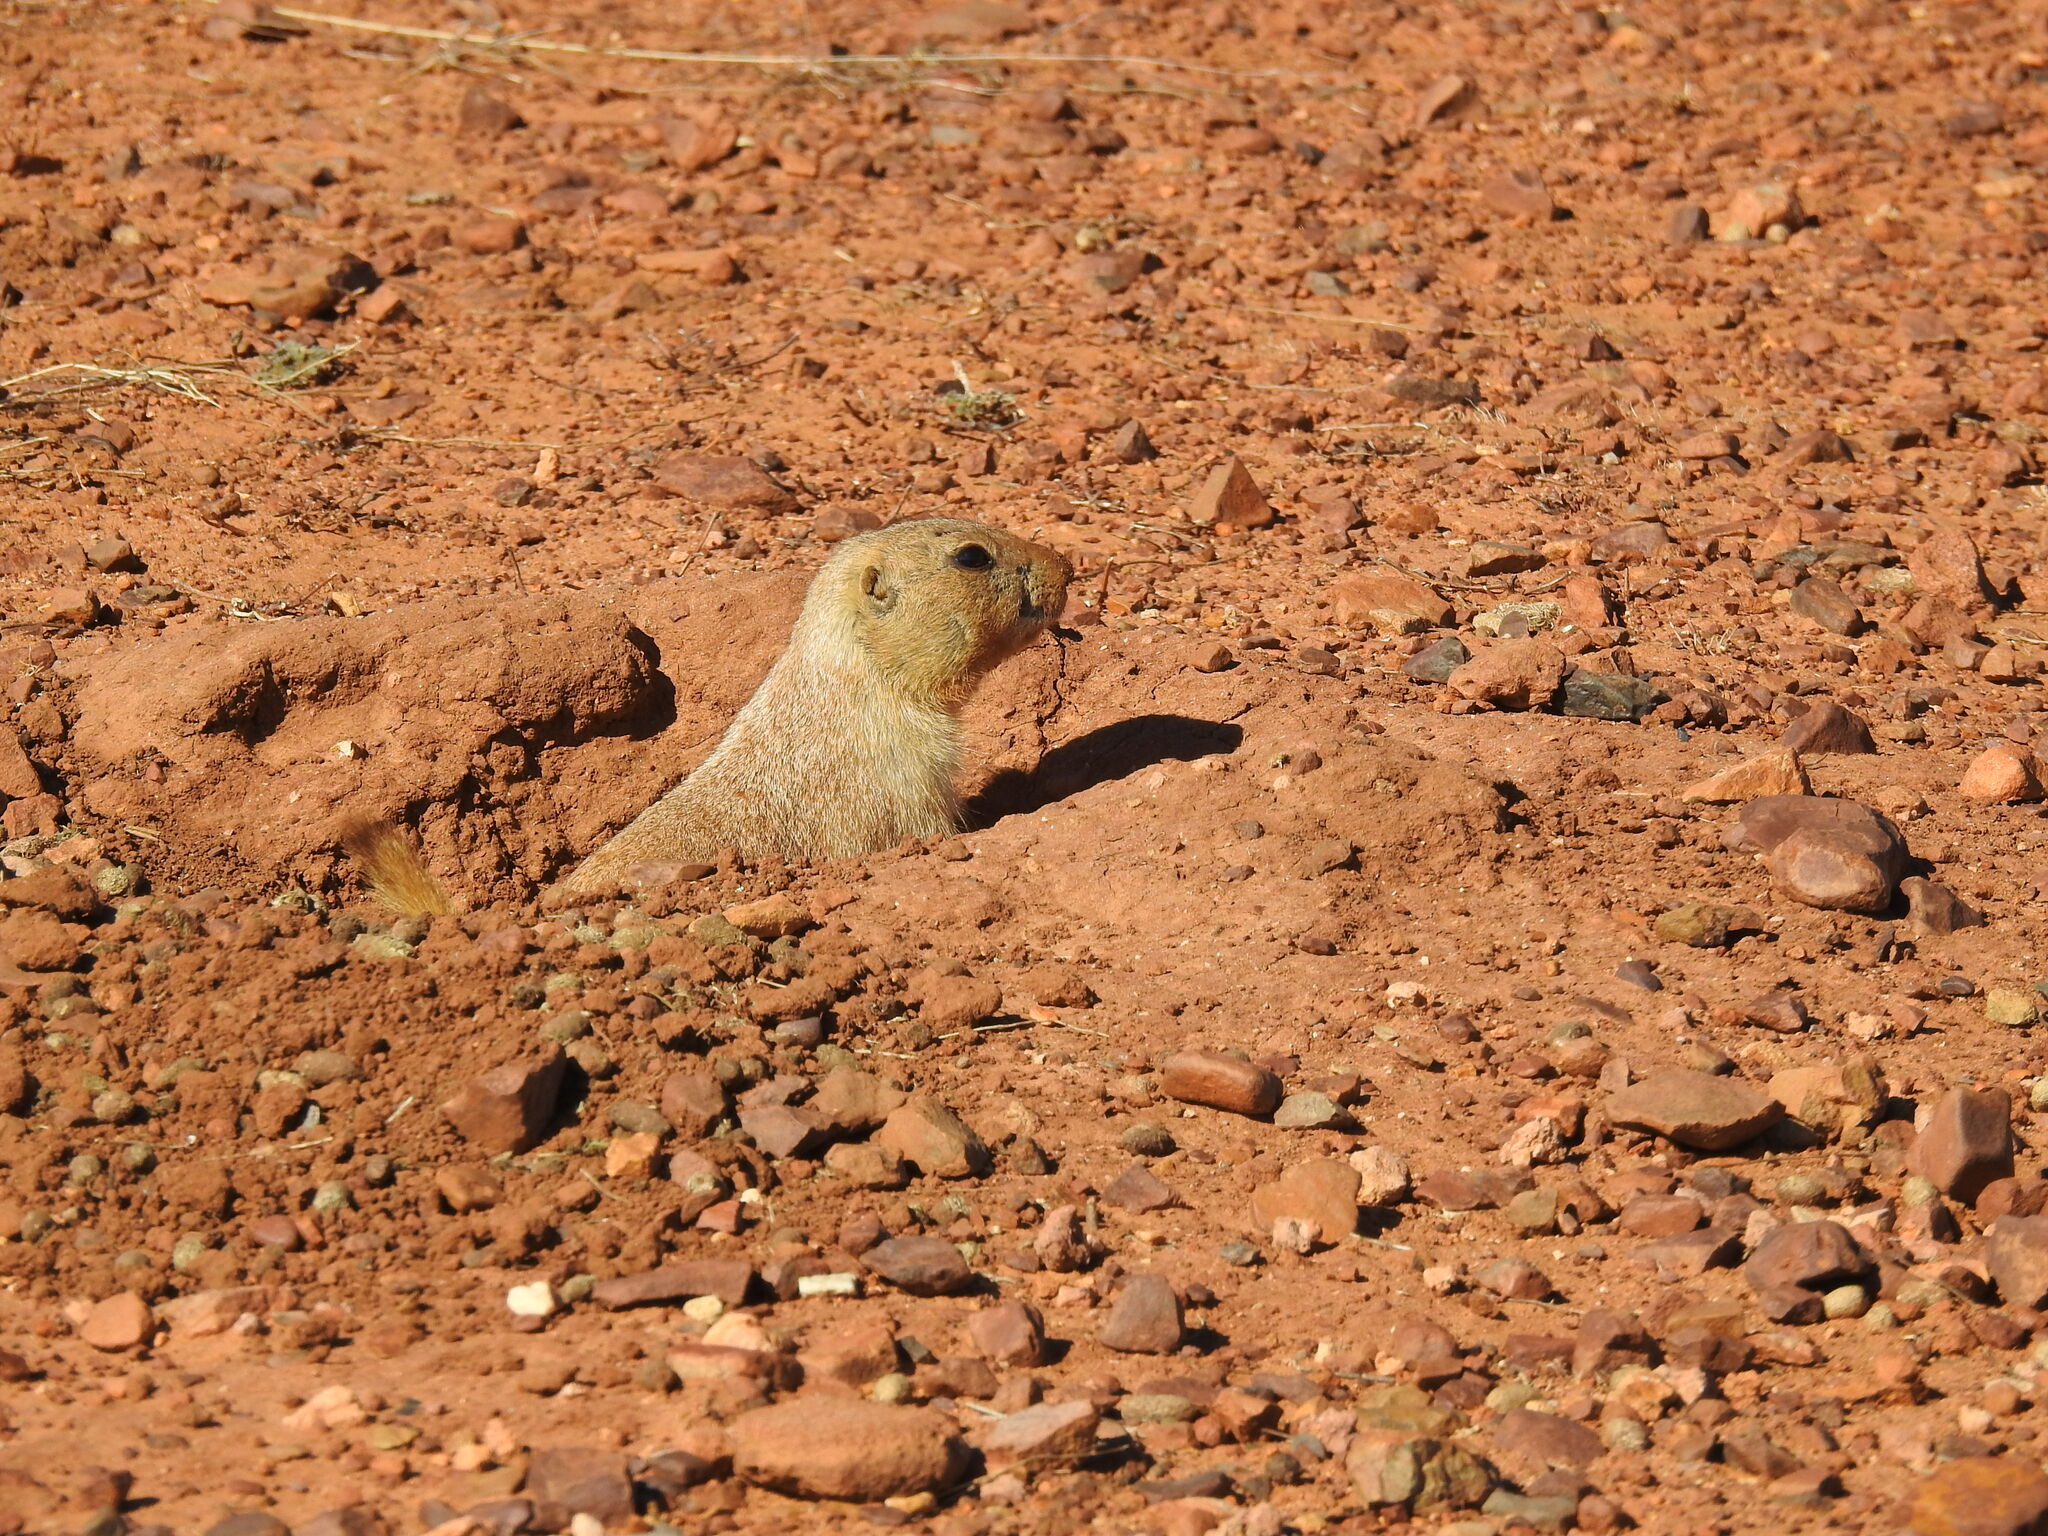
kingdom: Animalia
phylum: Chordata
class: Mammalia
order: Rodentia
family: Sciuridae
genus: Cynomys
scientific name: Cynomys ludovicianus
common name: Black-tailed prairie dog
